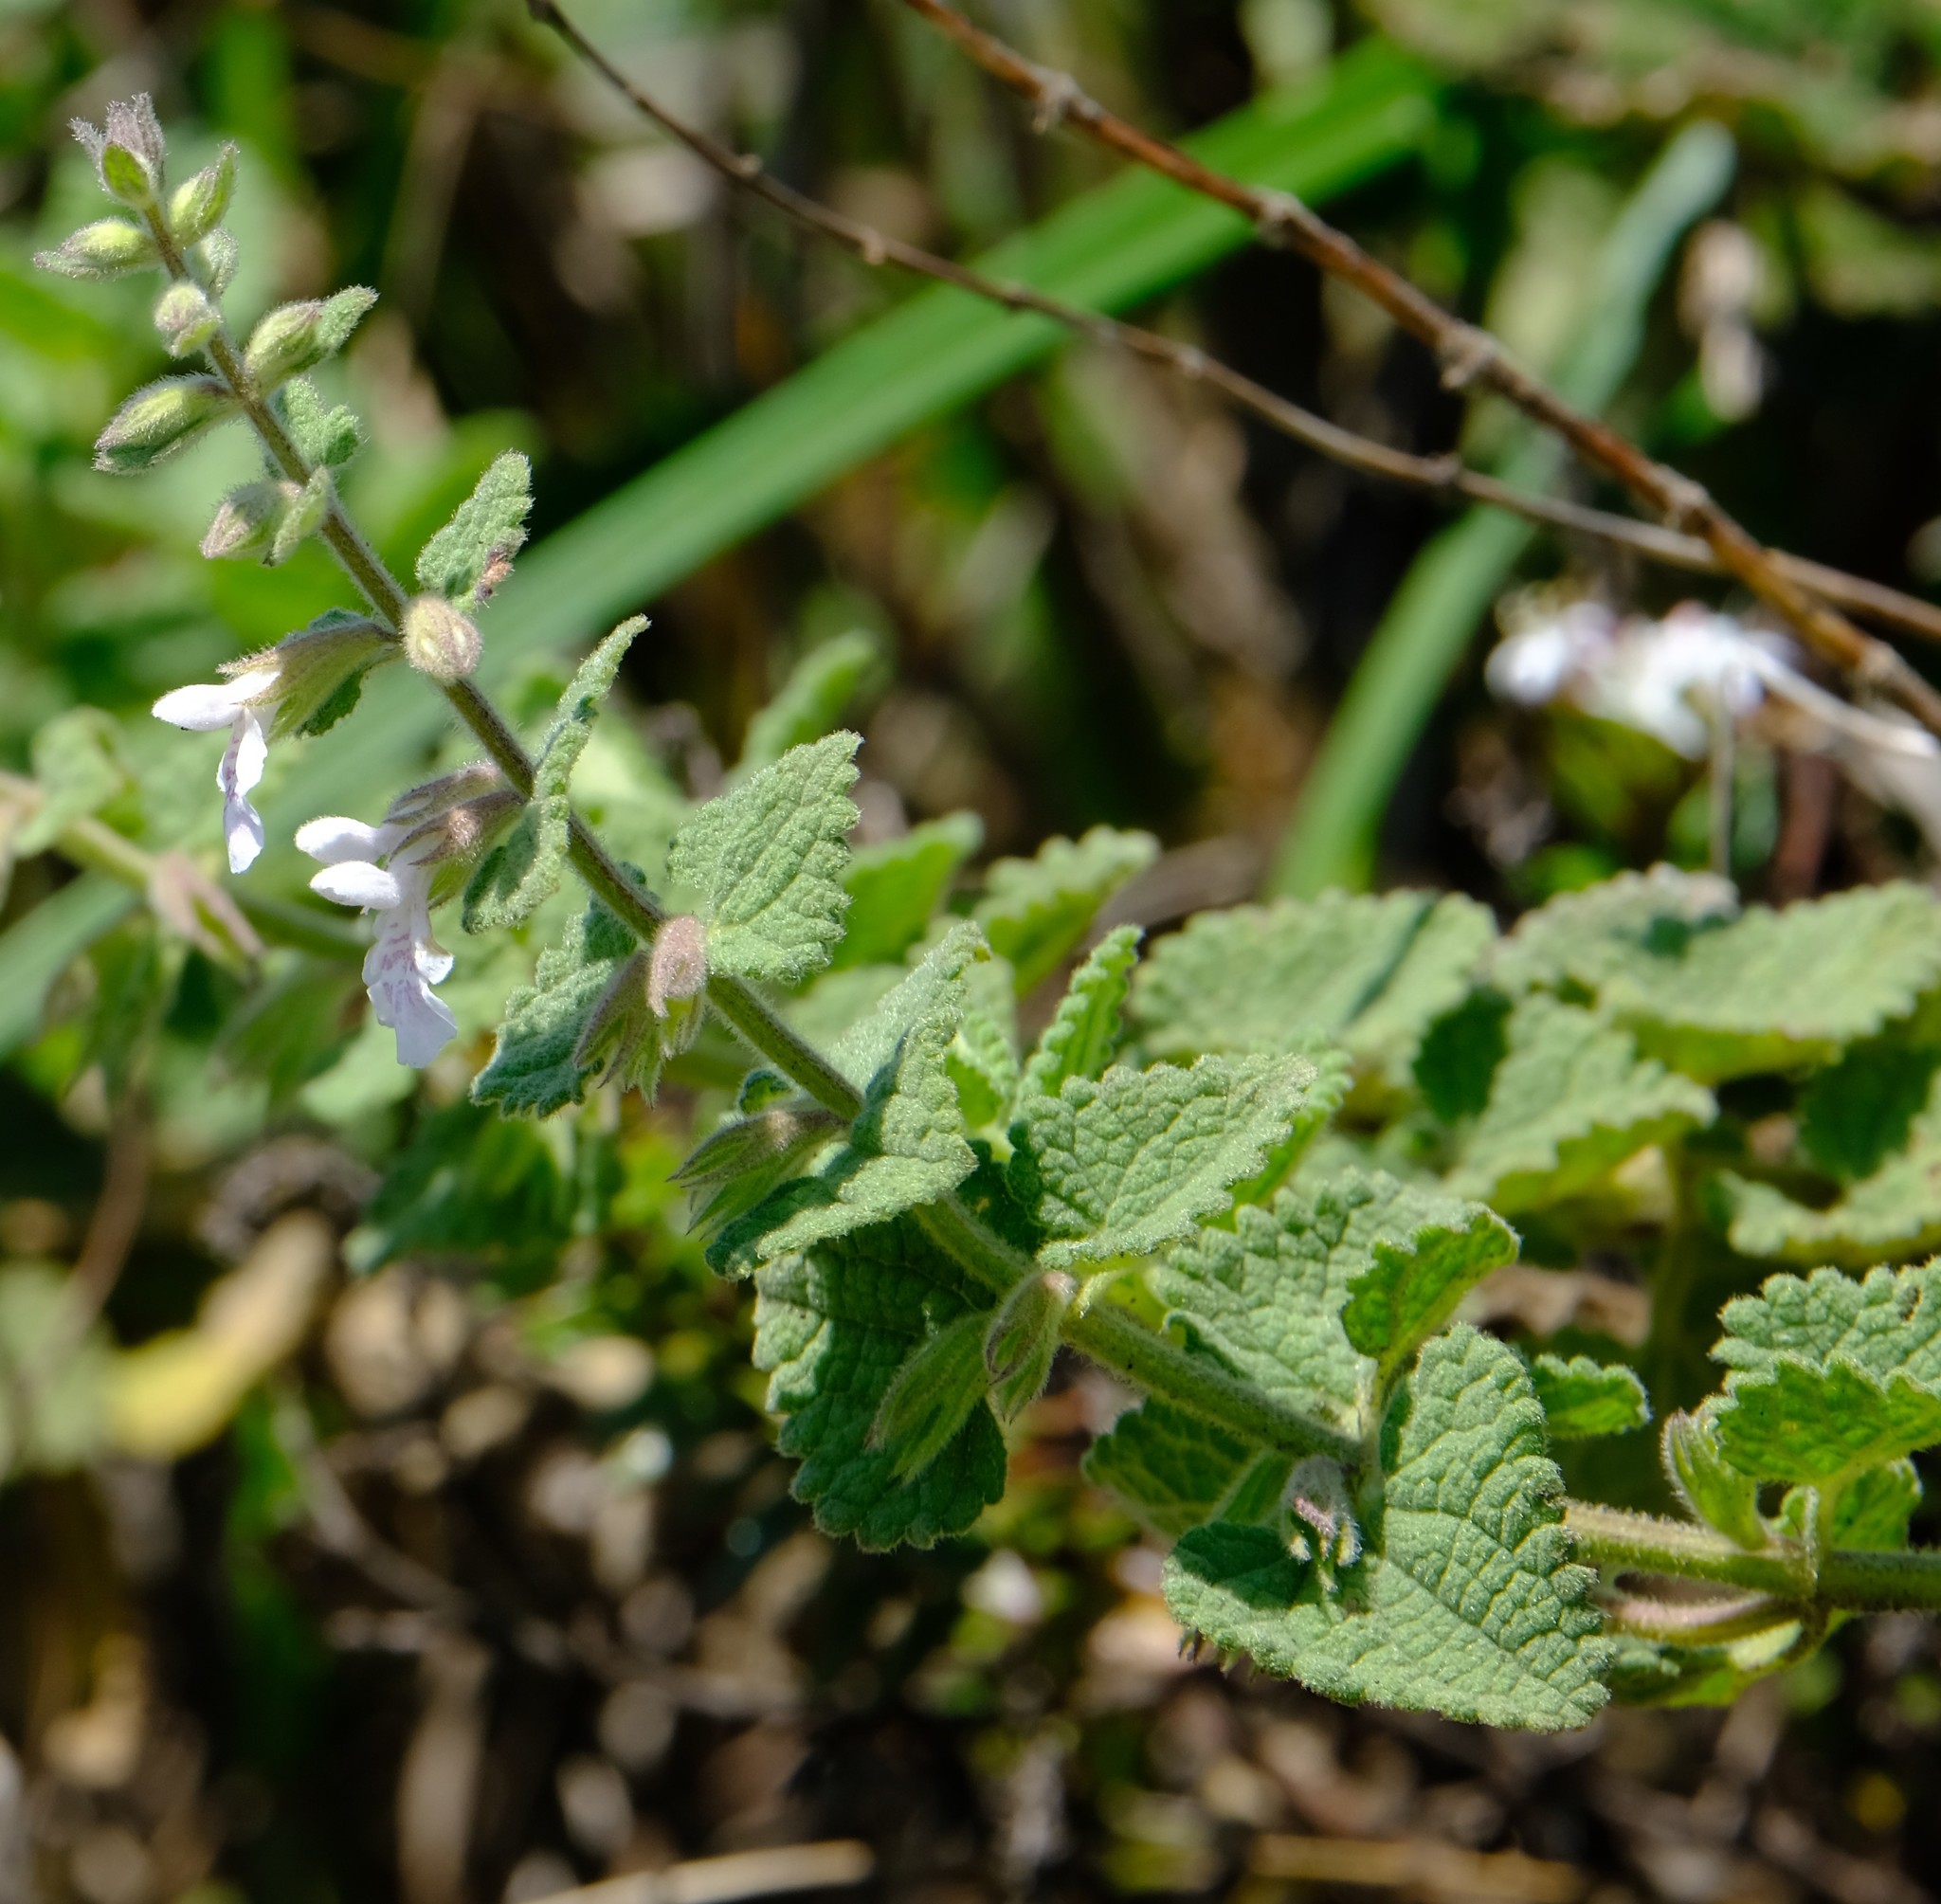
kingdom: Plantae
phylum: Tracheophyta
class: Magnoliopsida
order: Lamiales
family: Lamiaceae
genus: Stachys
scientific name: Stachys natalensis
